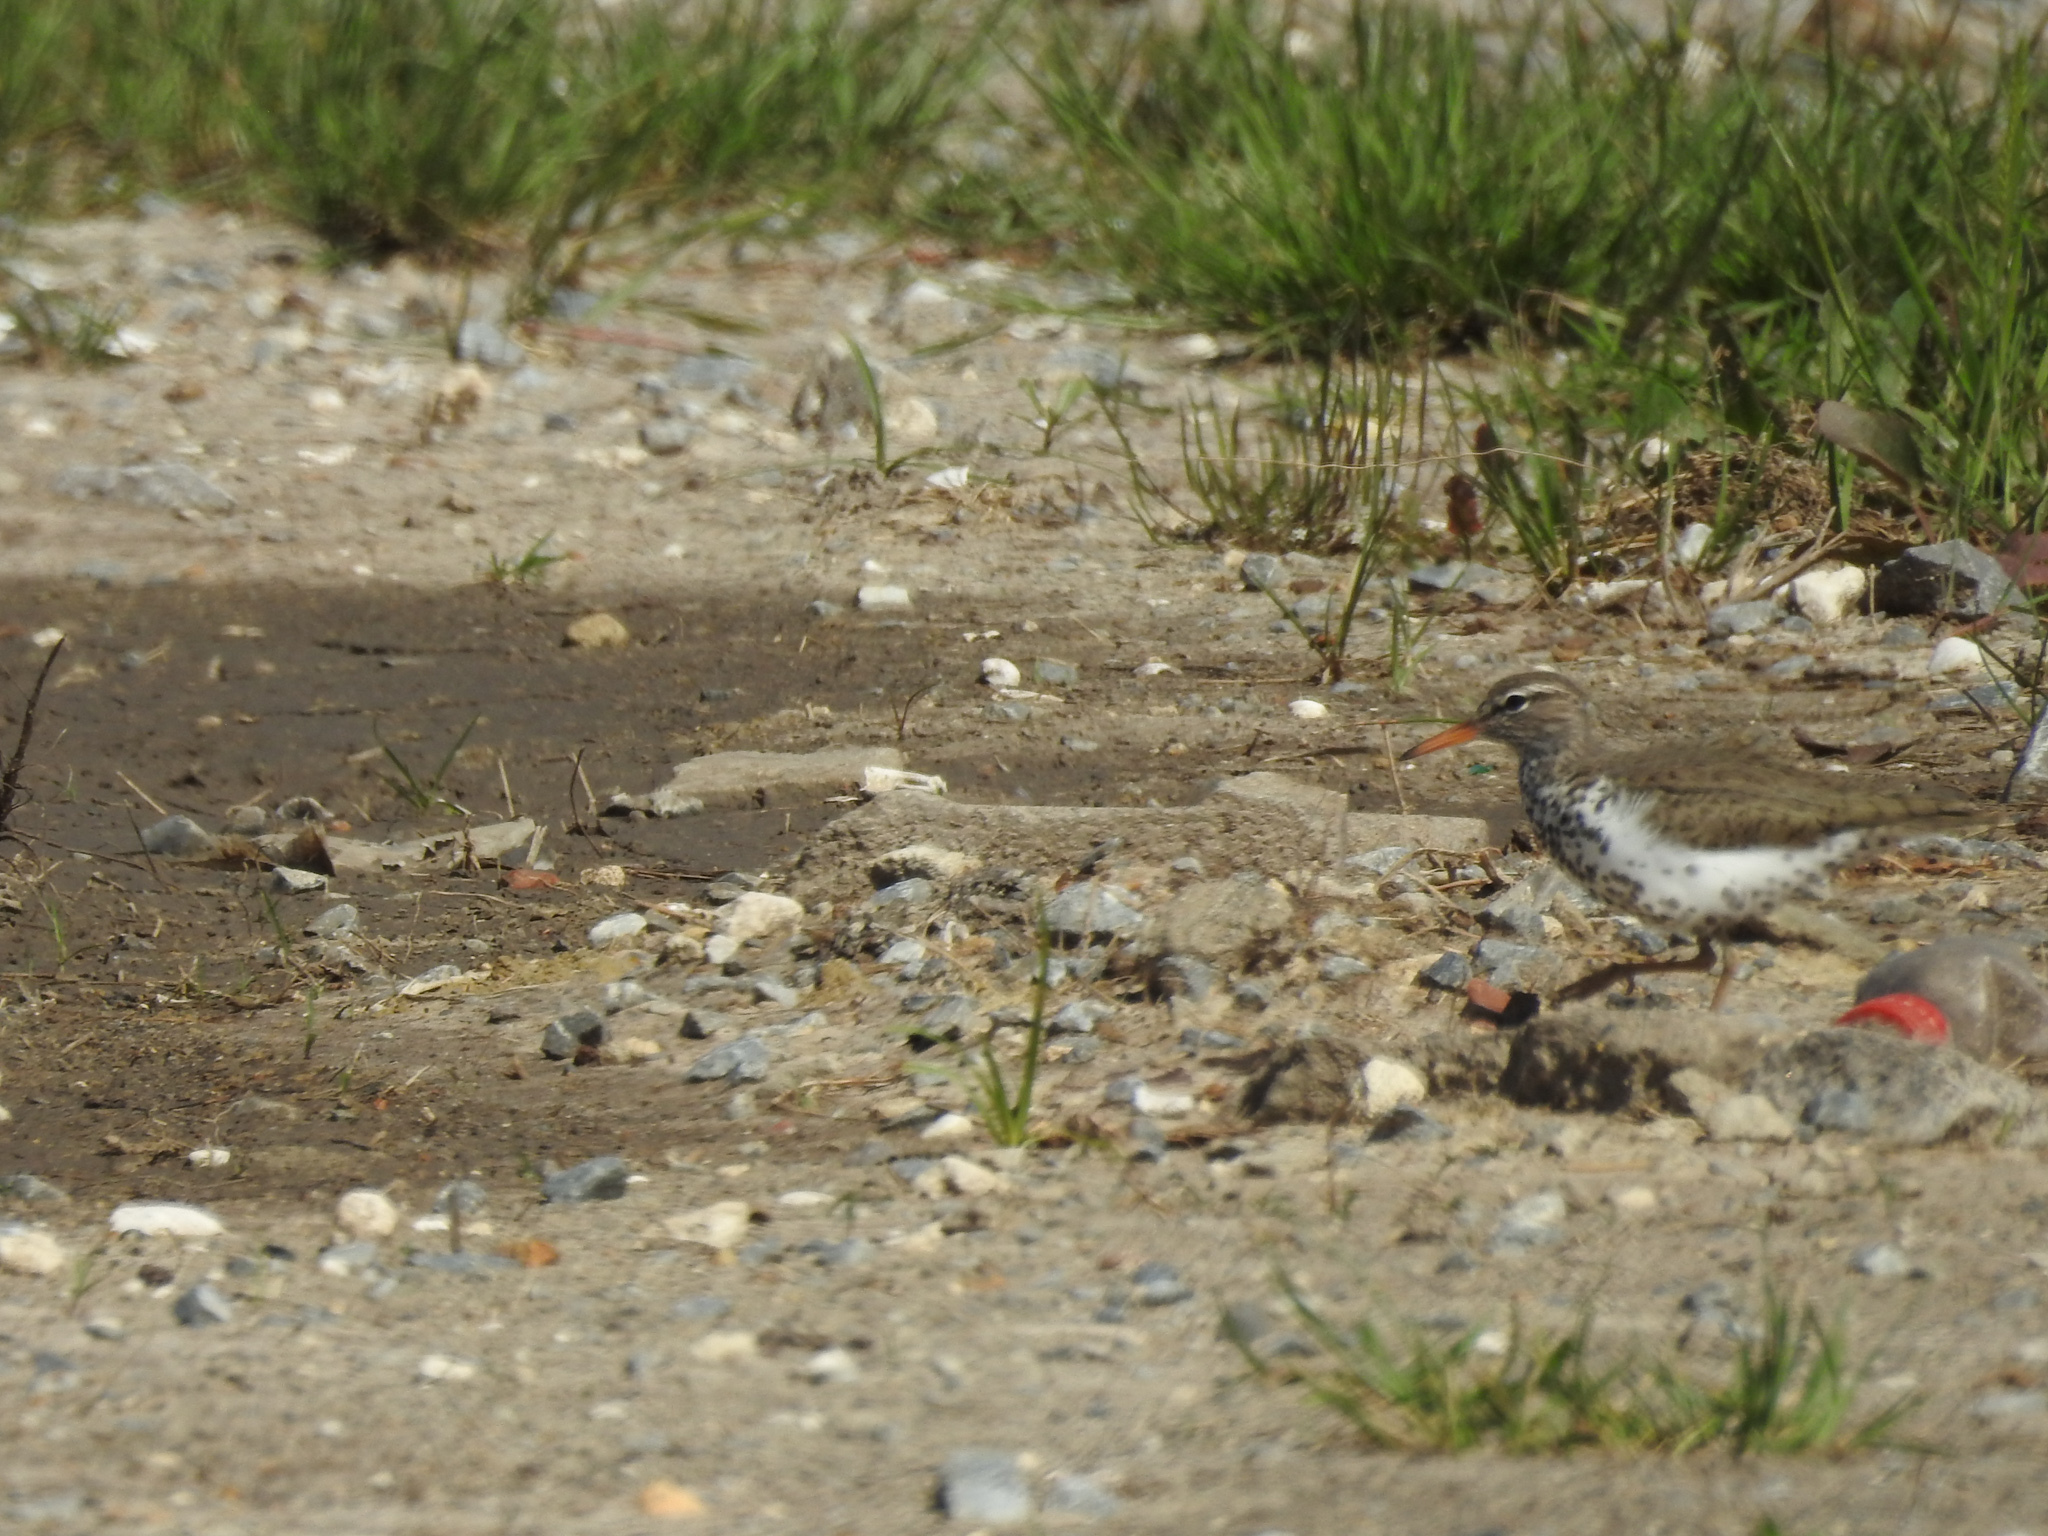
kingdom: Animalia
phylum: Chordata
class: Aves
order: Charadriiformes
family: Scolopacidae
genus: Actitis
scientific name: Actitis macularius
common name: Spotted sandpiper
